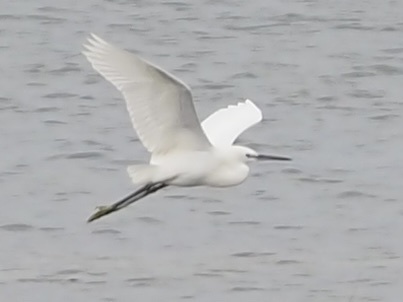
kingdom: Animalia
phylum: Chordata
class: Aves
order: Pelecaniformes
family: Ardeidae
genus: Egretta
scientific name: Egretta garzetta
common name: Little egret
